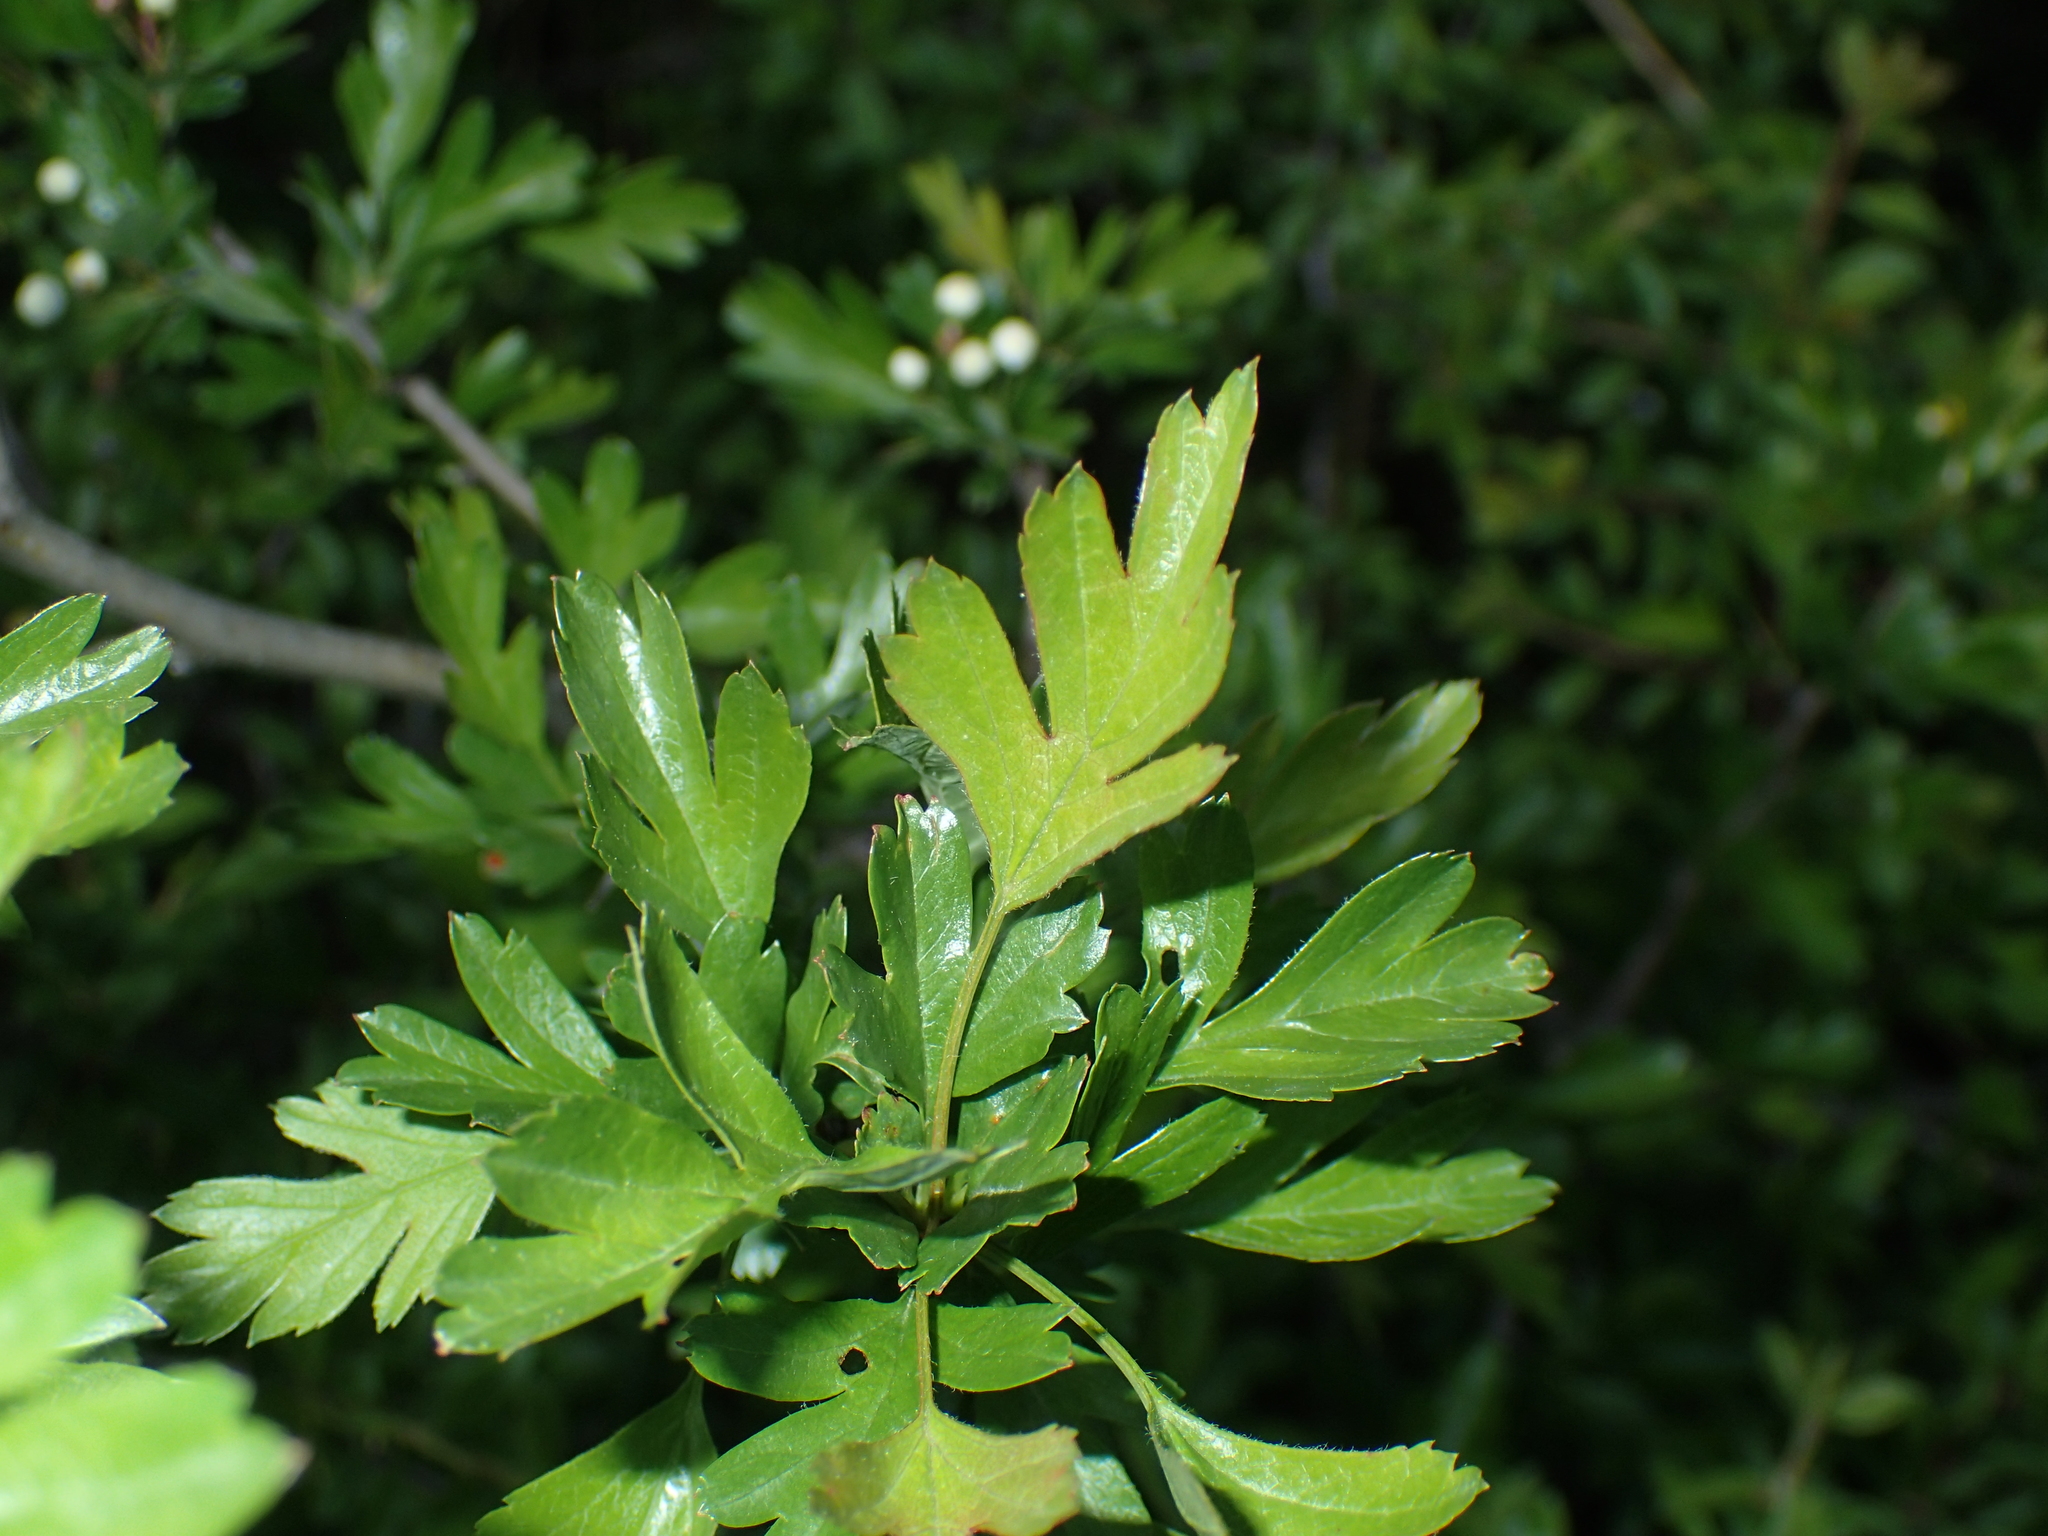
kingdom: Plantae
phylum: Tracheophyta
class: Magnoliopsida
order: Rosales
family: Rosaceae
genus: Crataegus
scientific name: Crataegus monogyna
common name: Hawthorn
